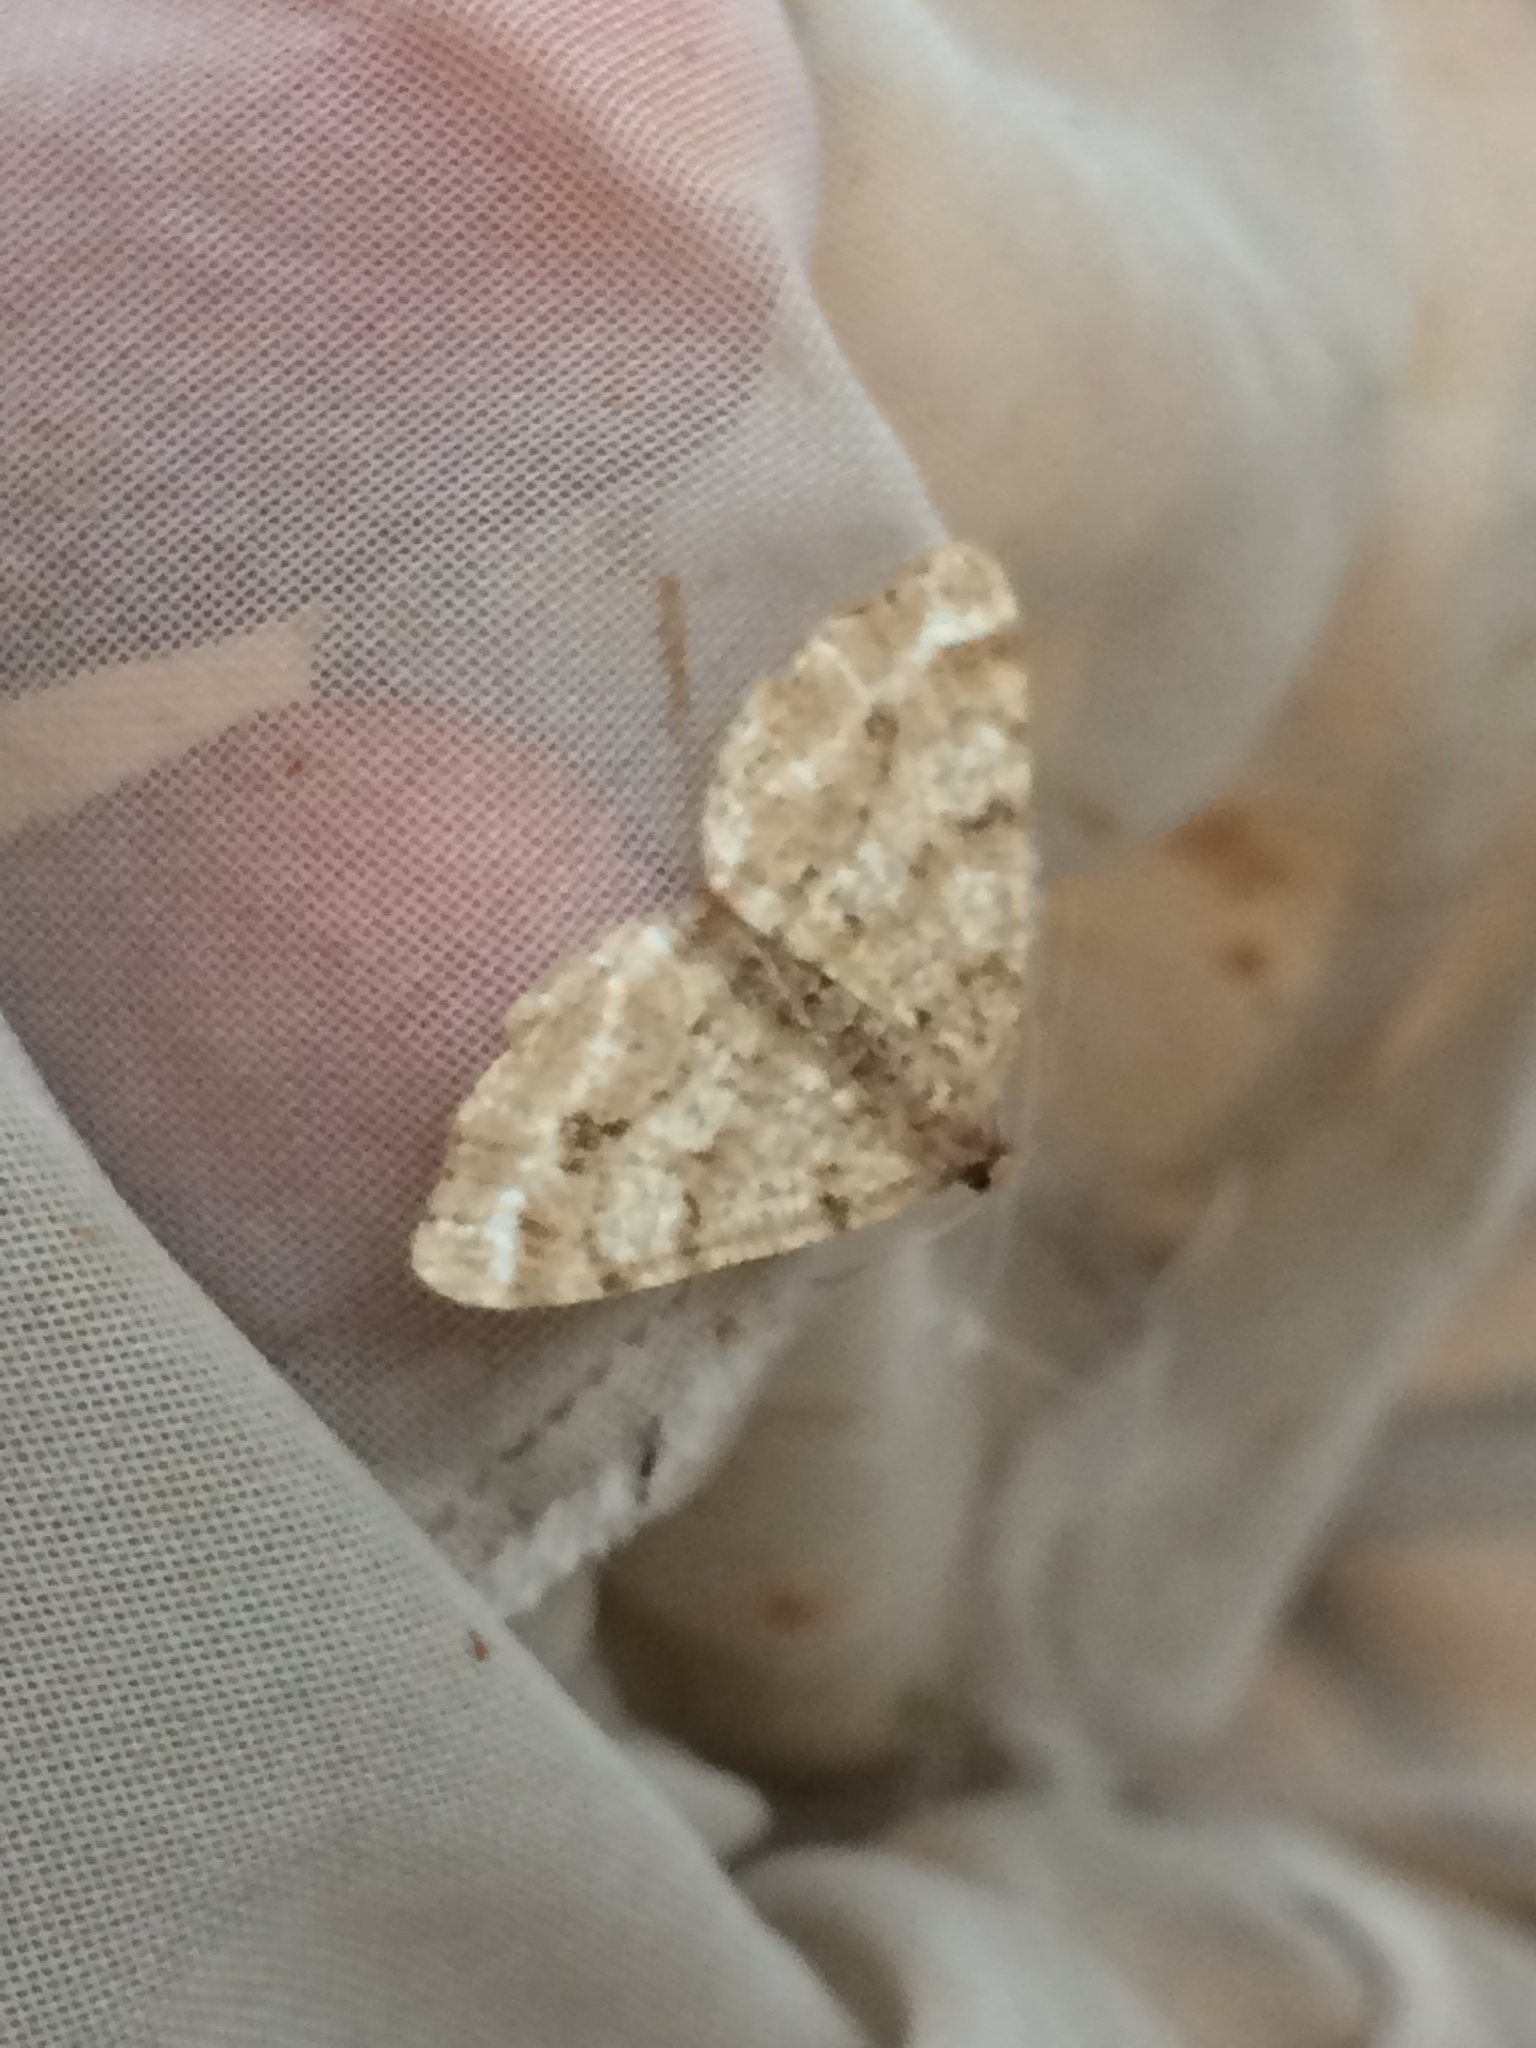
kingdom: Animalia
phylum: Arthropoda
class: Insecta
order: Lepidoptera
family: Geometridae
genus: Macaria
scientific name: Macaria signaria
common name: Dusky peacock
